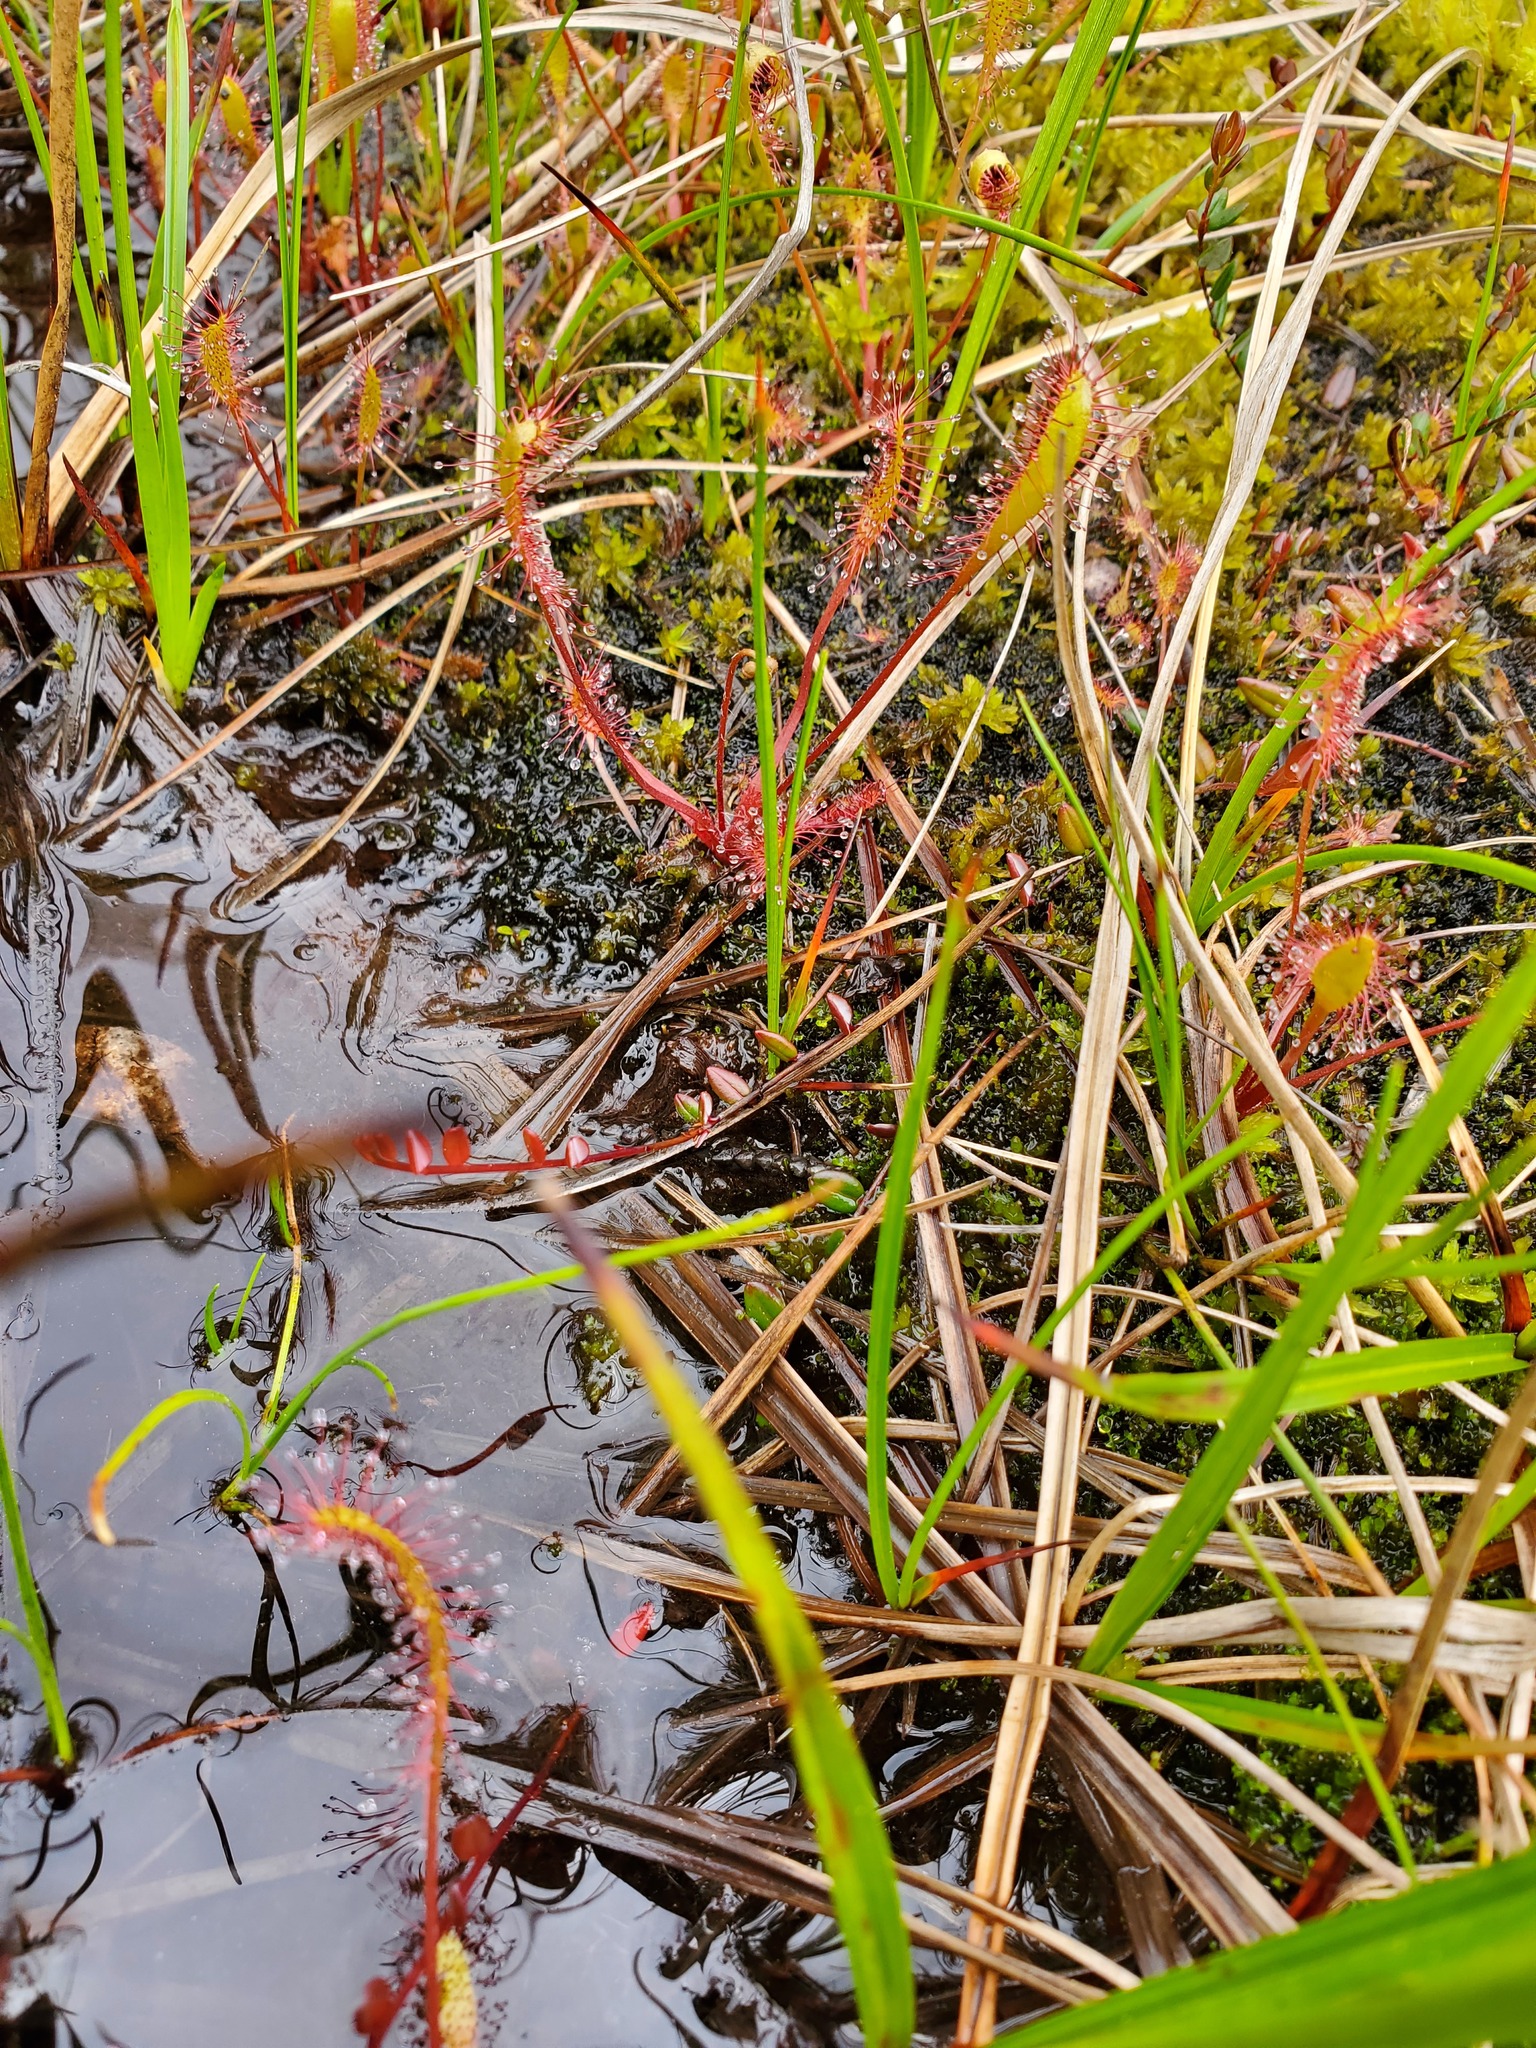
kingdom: Plantae
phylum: Tracheophyta
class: Magnoliopsida
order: Caryophyllales
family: Droseraceae
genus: Drosera
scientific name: Drosera anglica
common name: Great sundew
